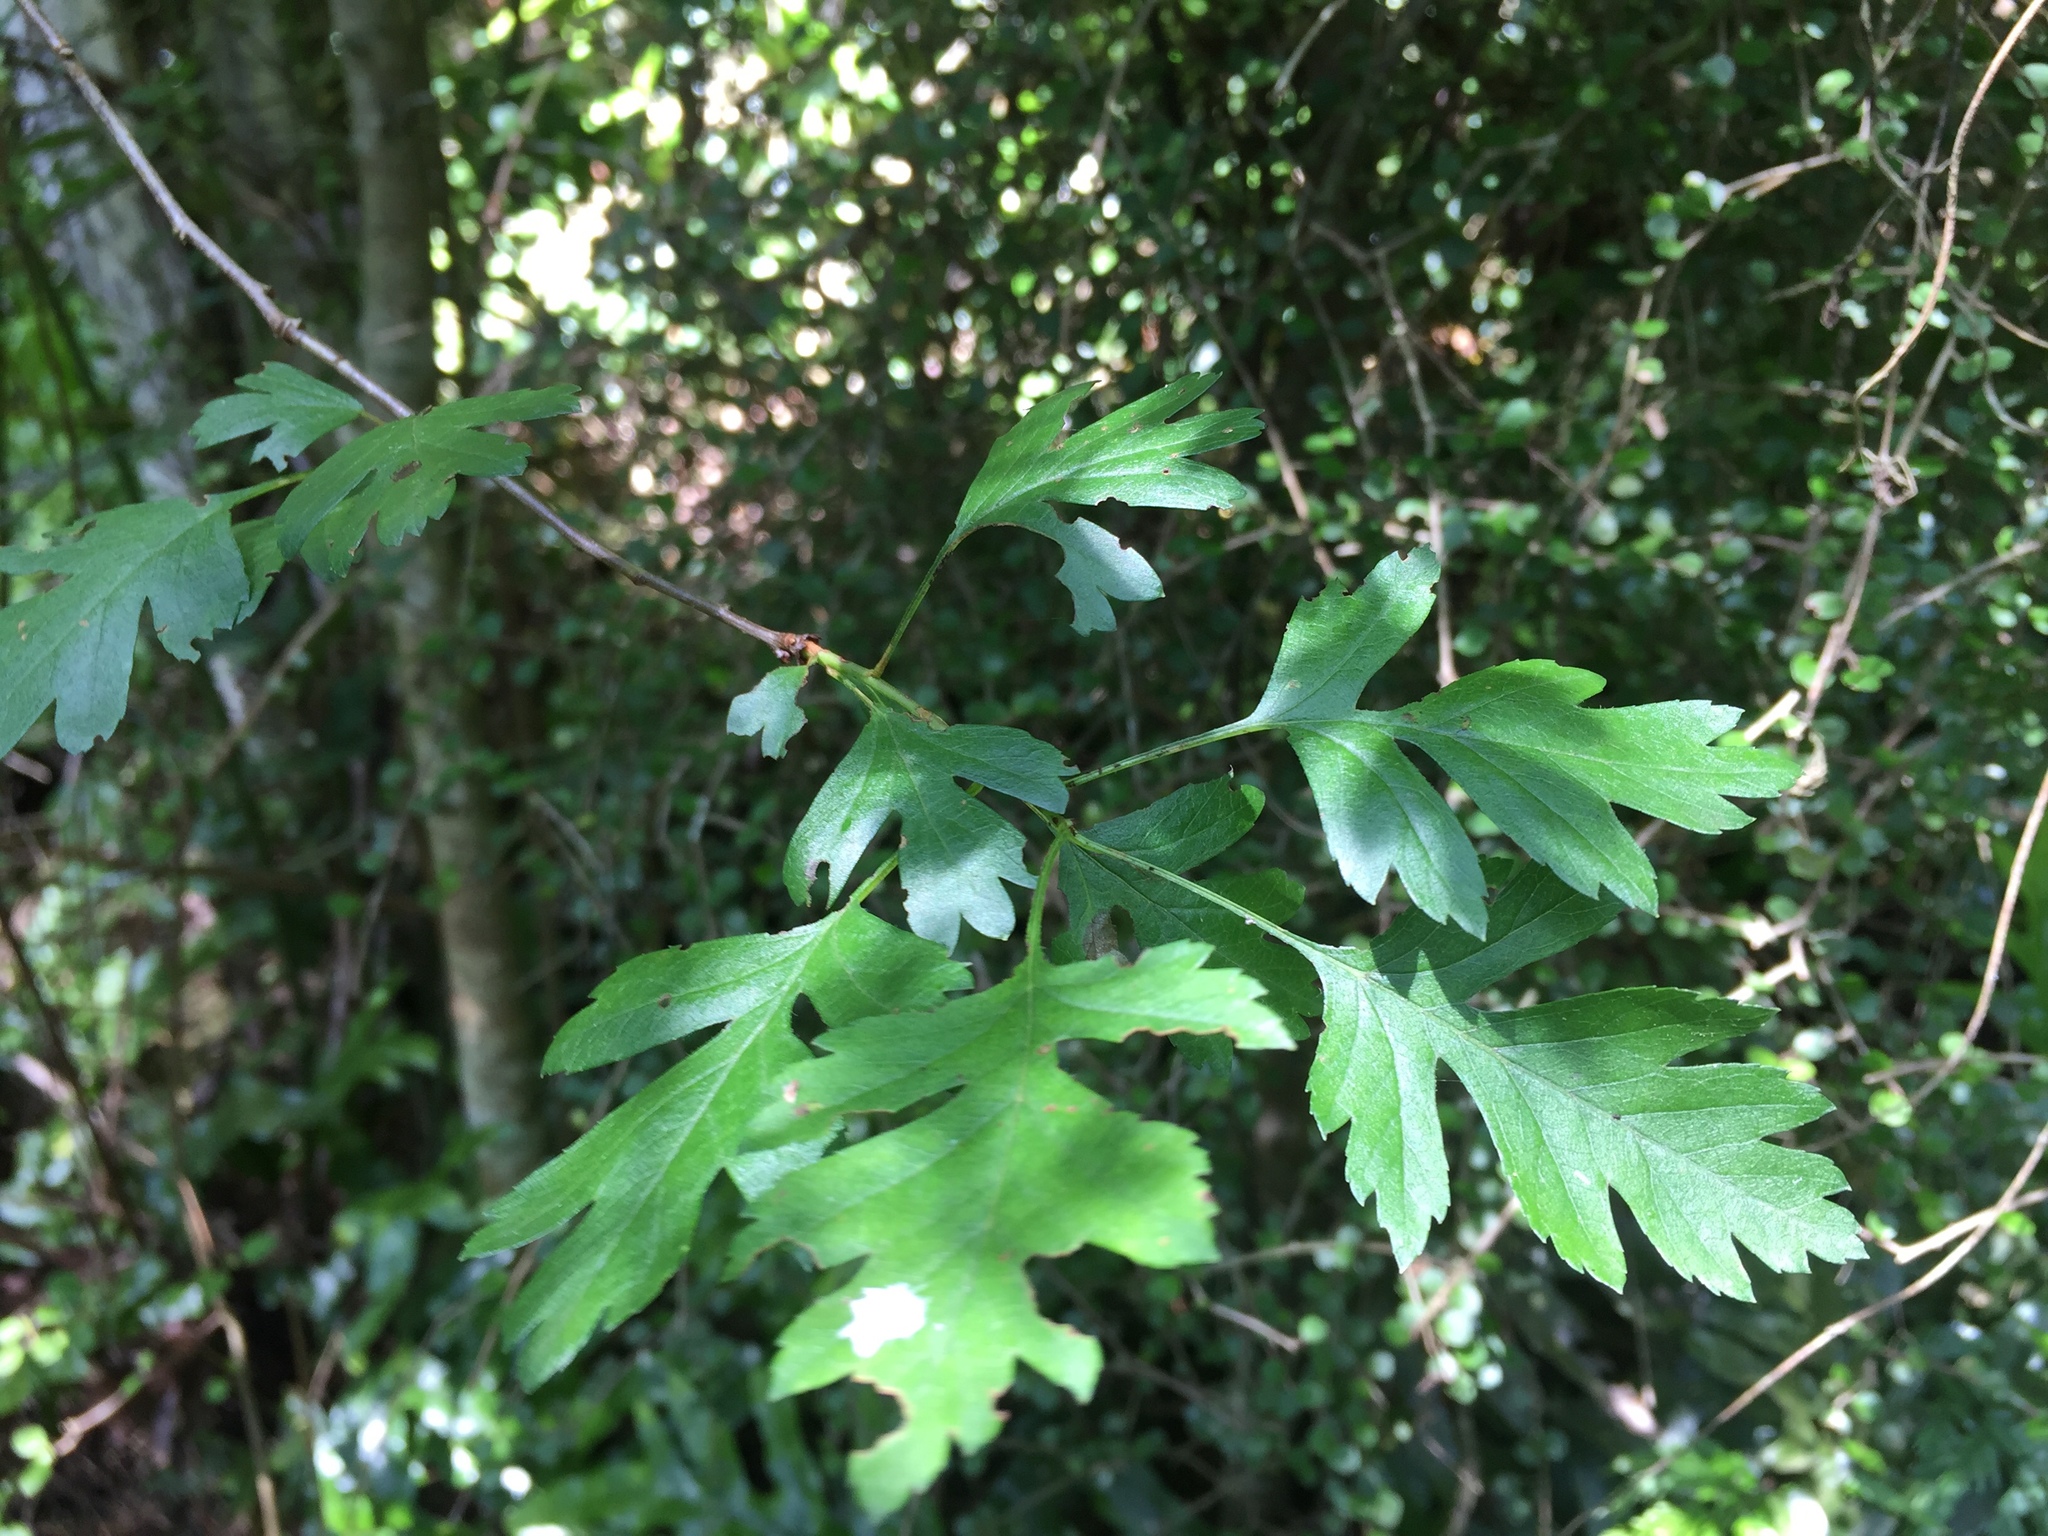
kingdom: Plantae
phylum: Tracheophyta
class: Magnoliopsida
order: Rosales
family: Rosaceae
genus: Crataegus
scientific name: Crataegus monogyna
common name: Hawthorn
